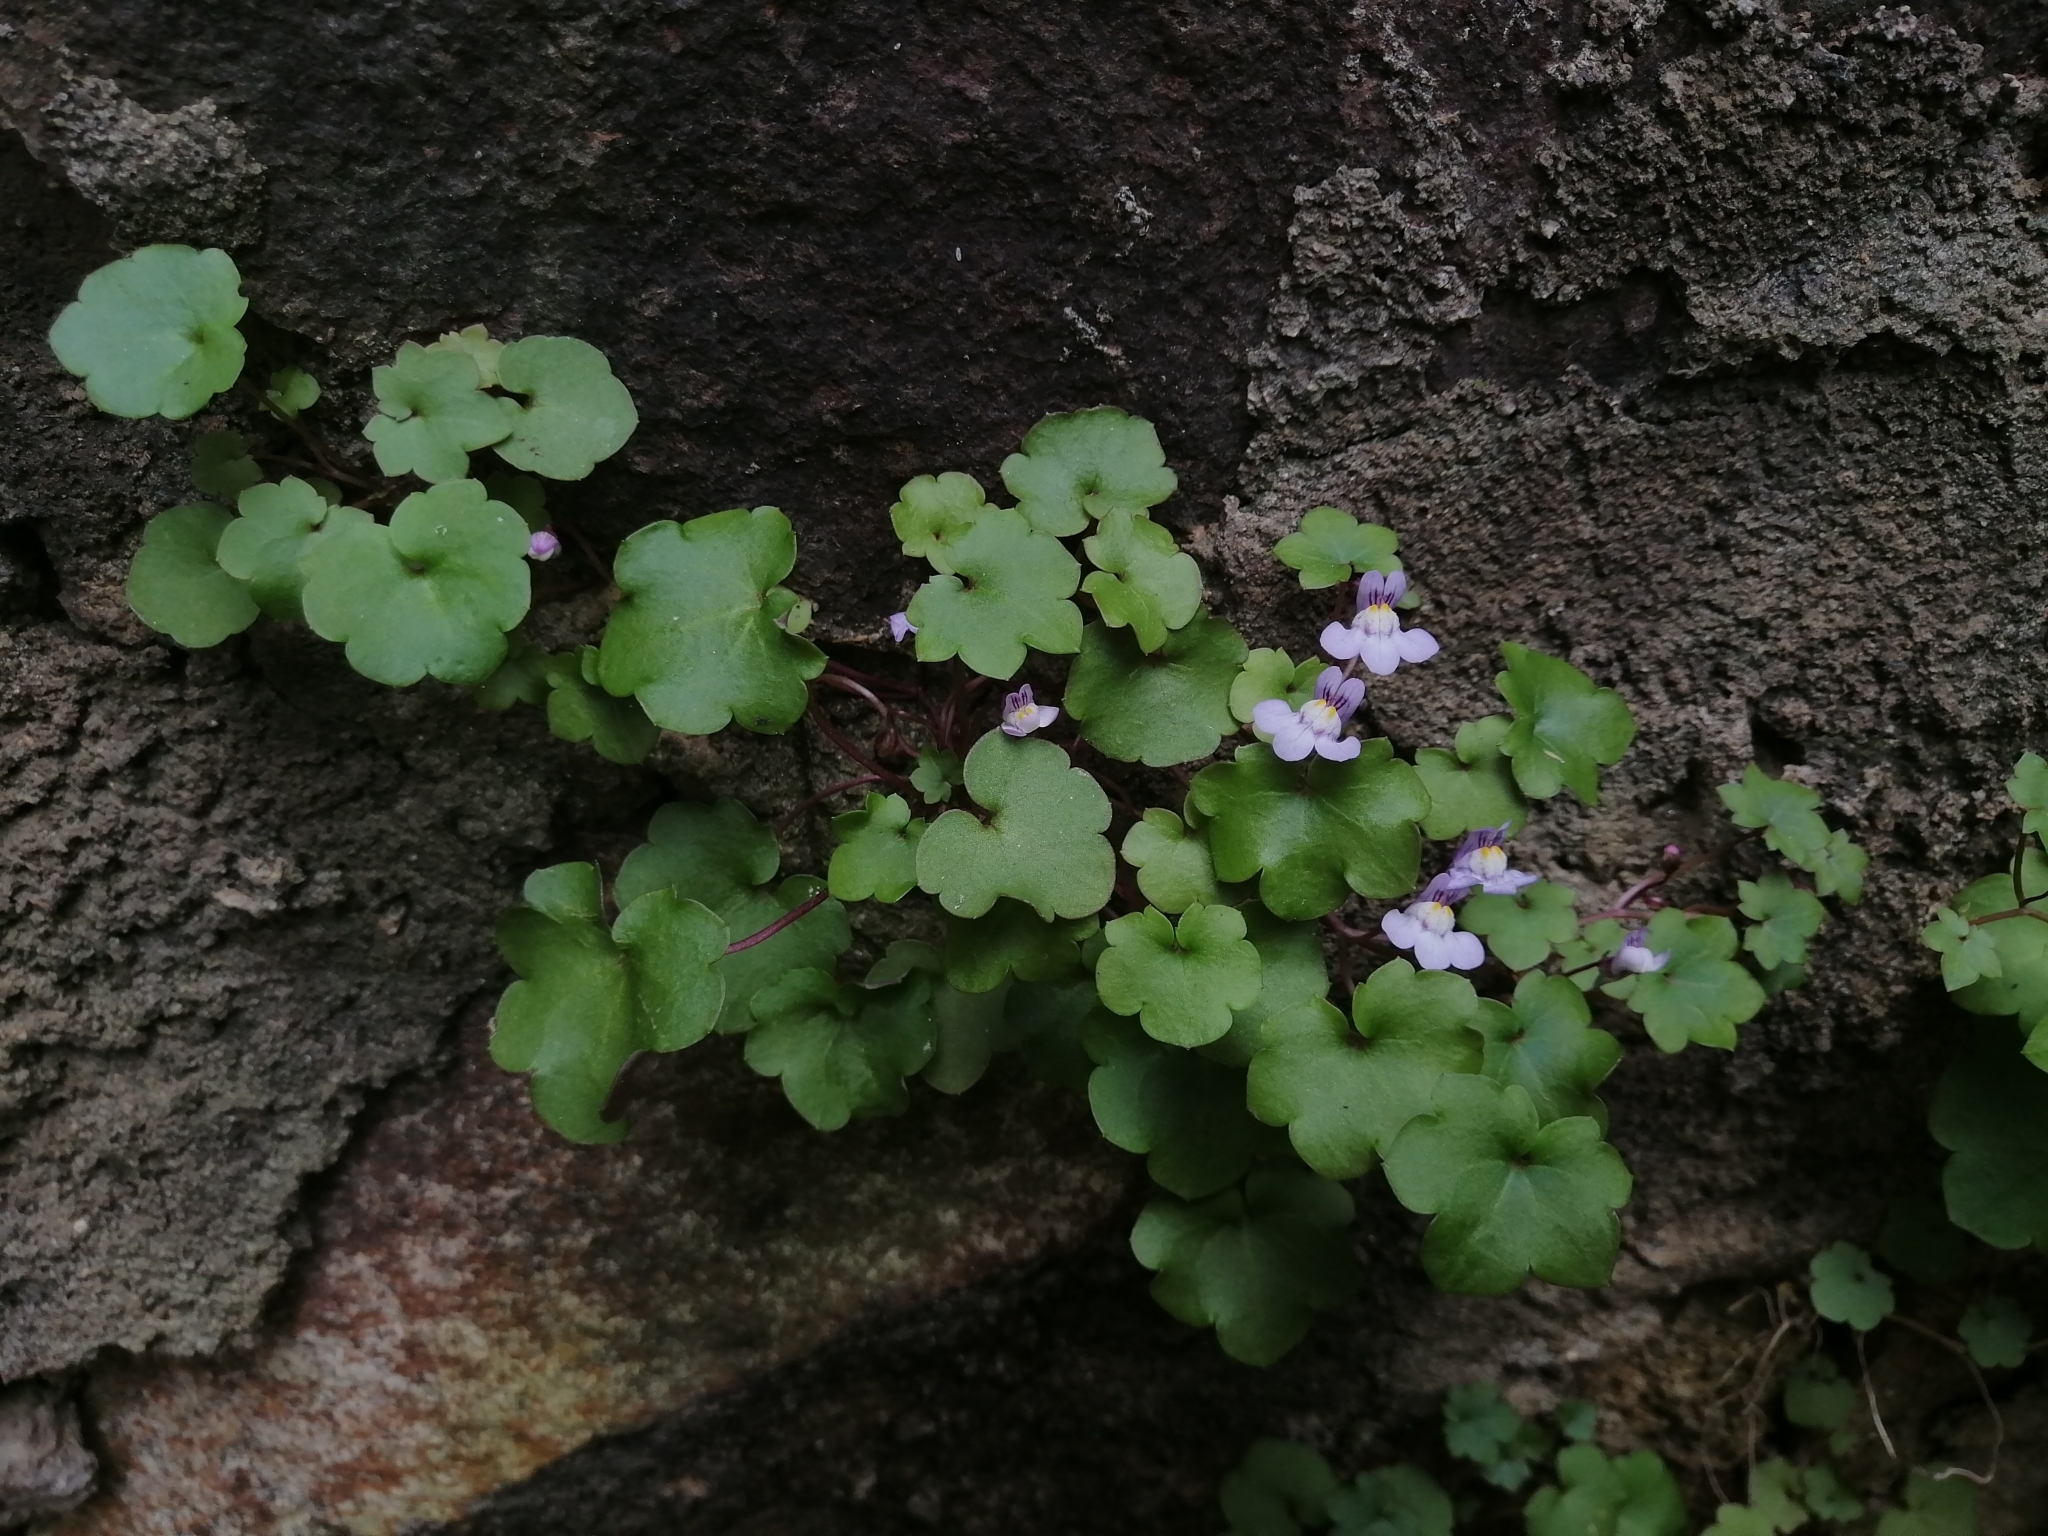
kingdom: Plantae
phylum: Tracheophyta
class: Magnoliopsida
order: Lamiales
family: Plantaginaceae
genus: Cymbalaria
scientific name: Cymbalaria muralis
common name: Ivy-leaved toadflax
